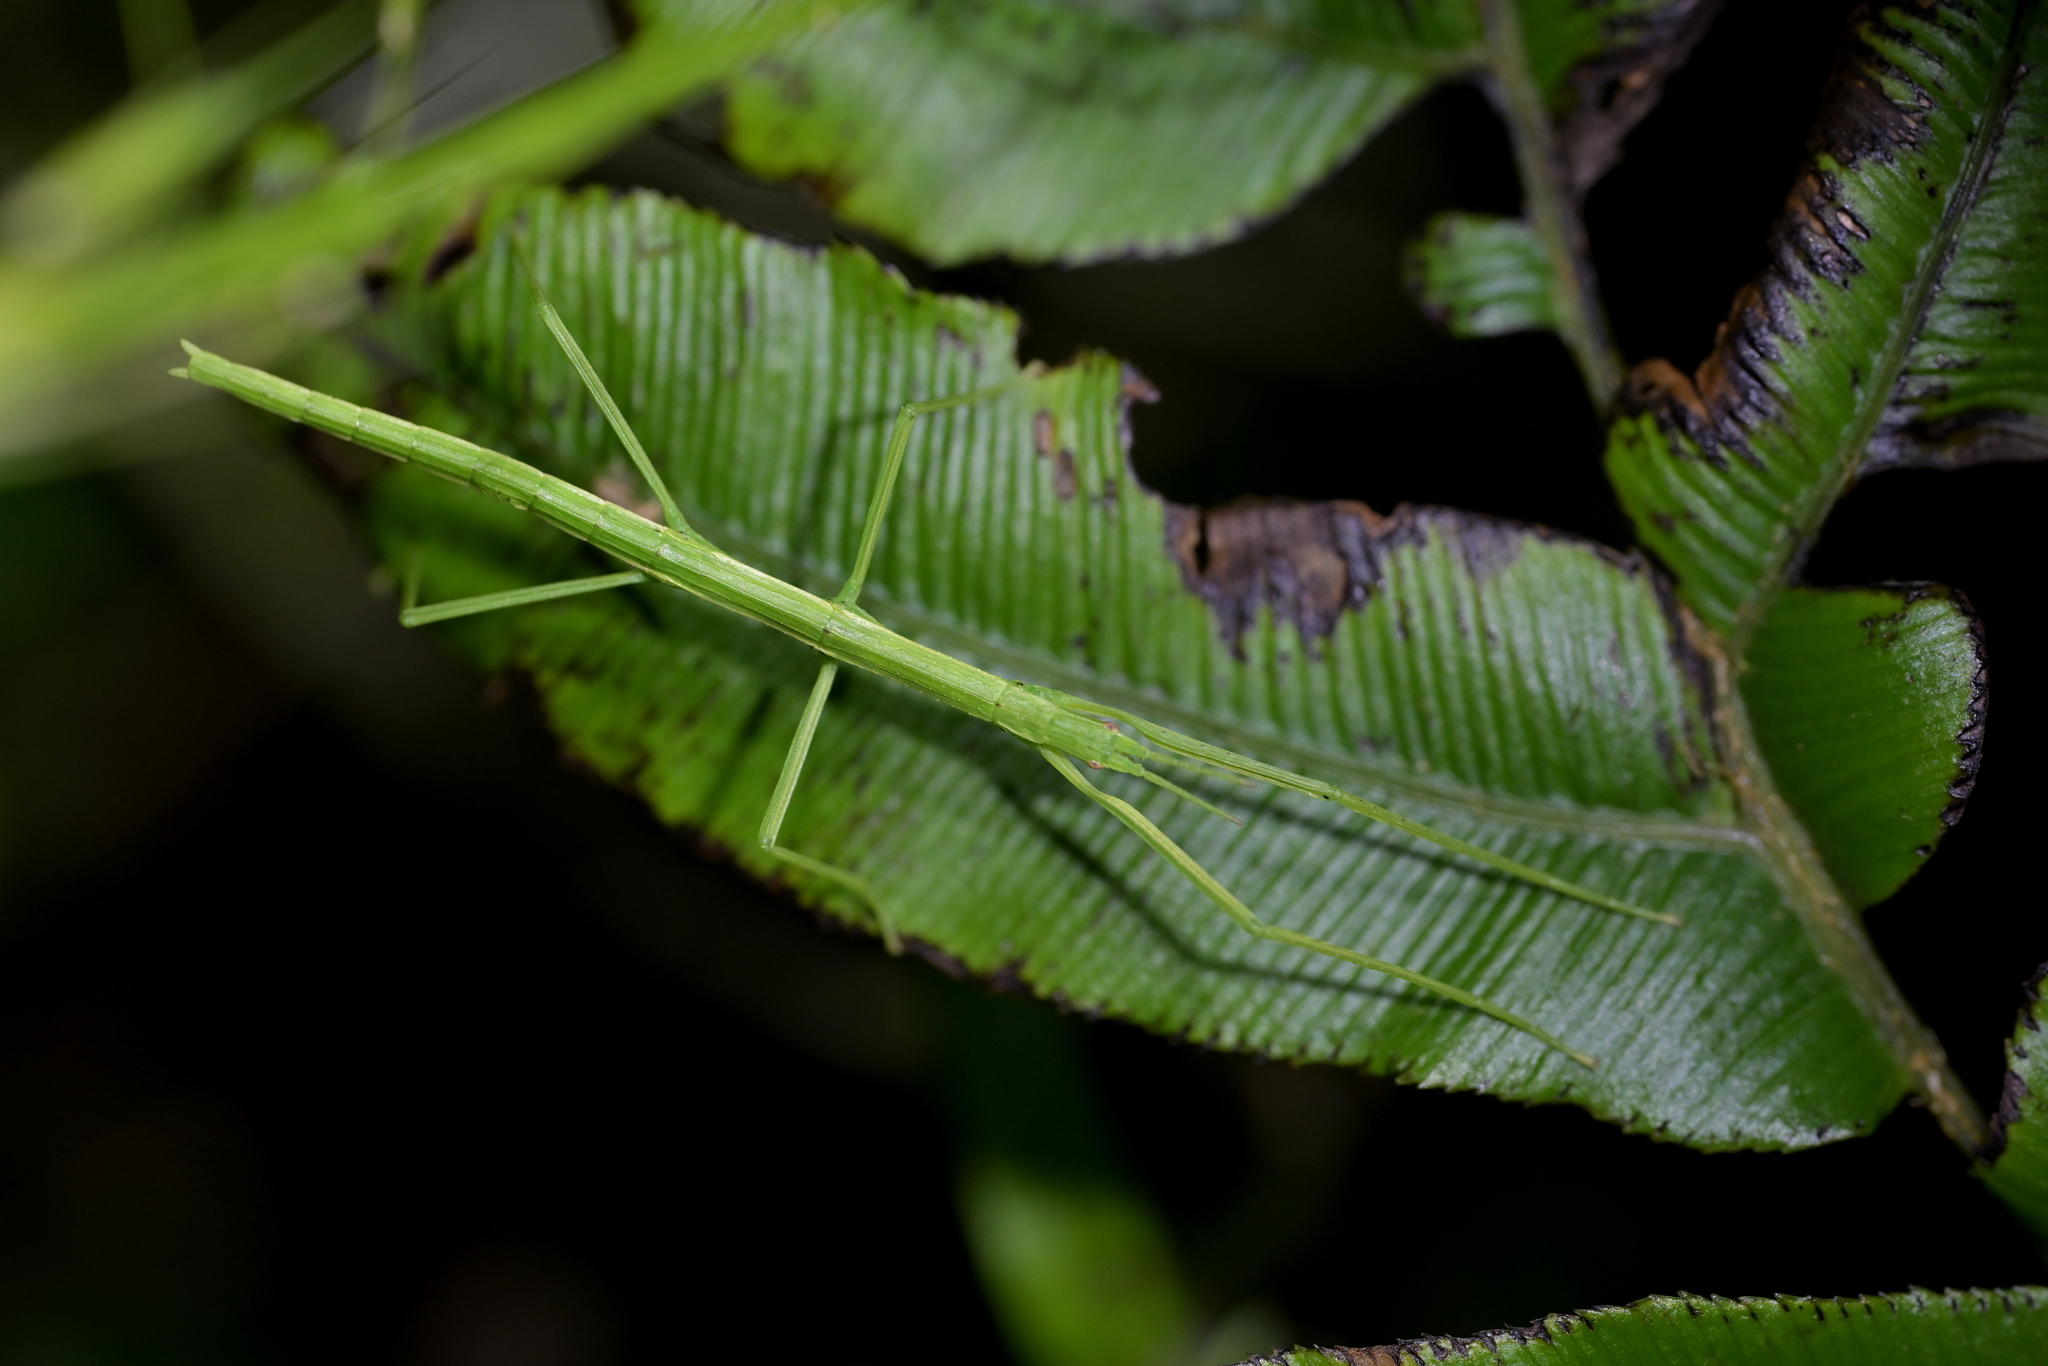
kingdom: Animalia
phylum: Arthropoda
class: Insecta
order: Phasmida
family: Phasmatidae
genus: Clitarchus
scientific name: Clitarchus hookeri
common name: Smooth stick insect
